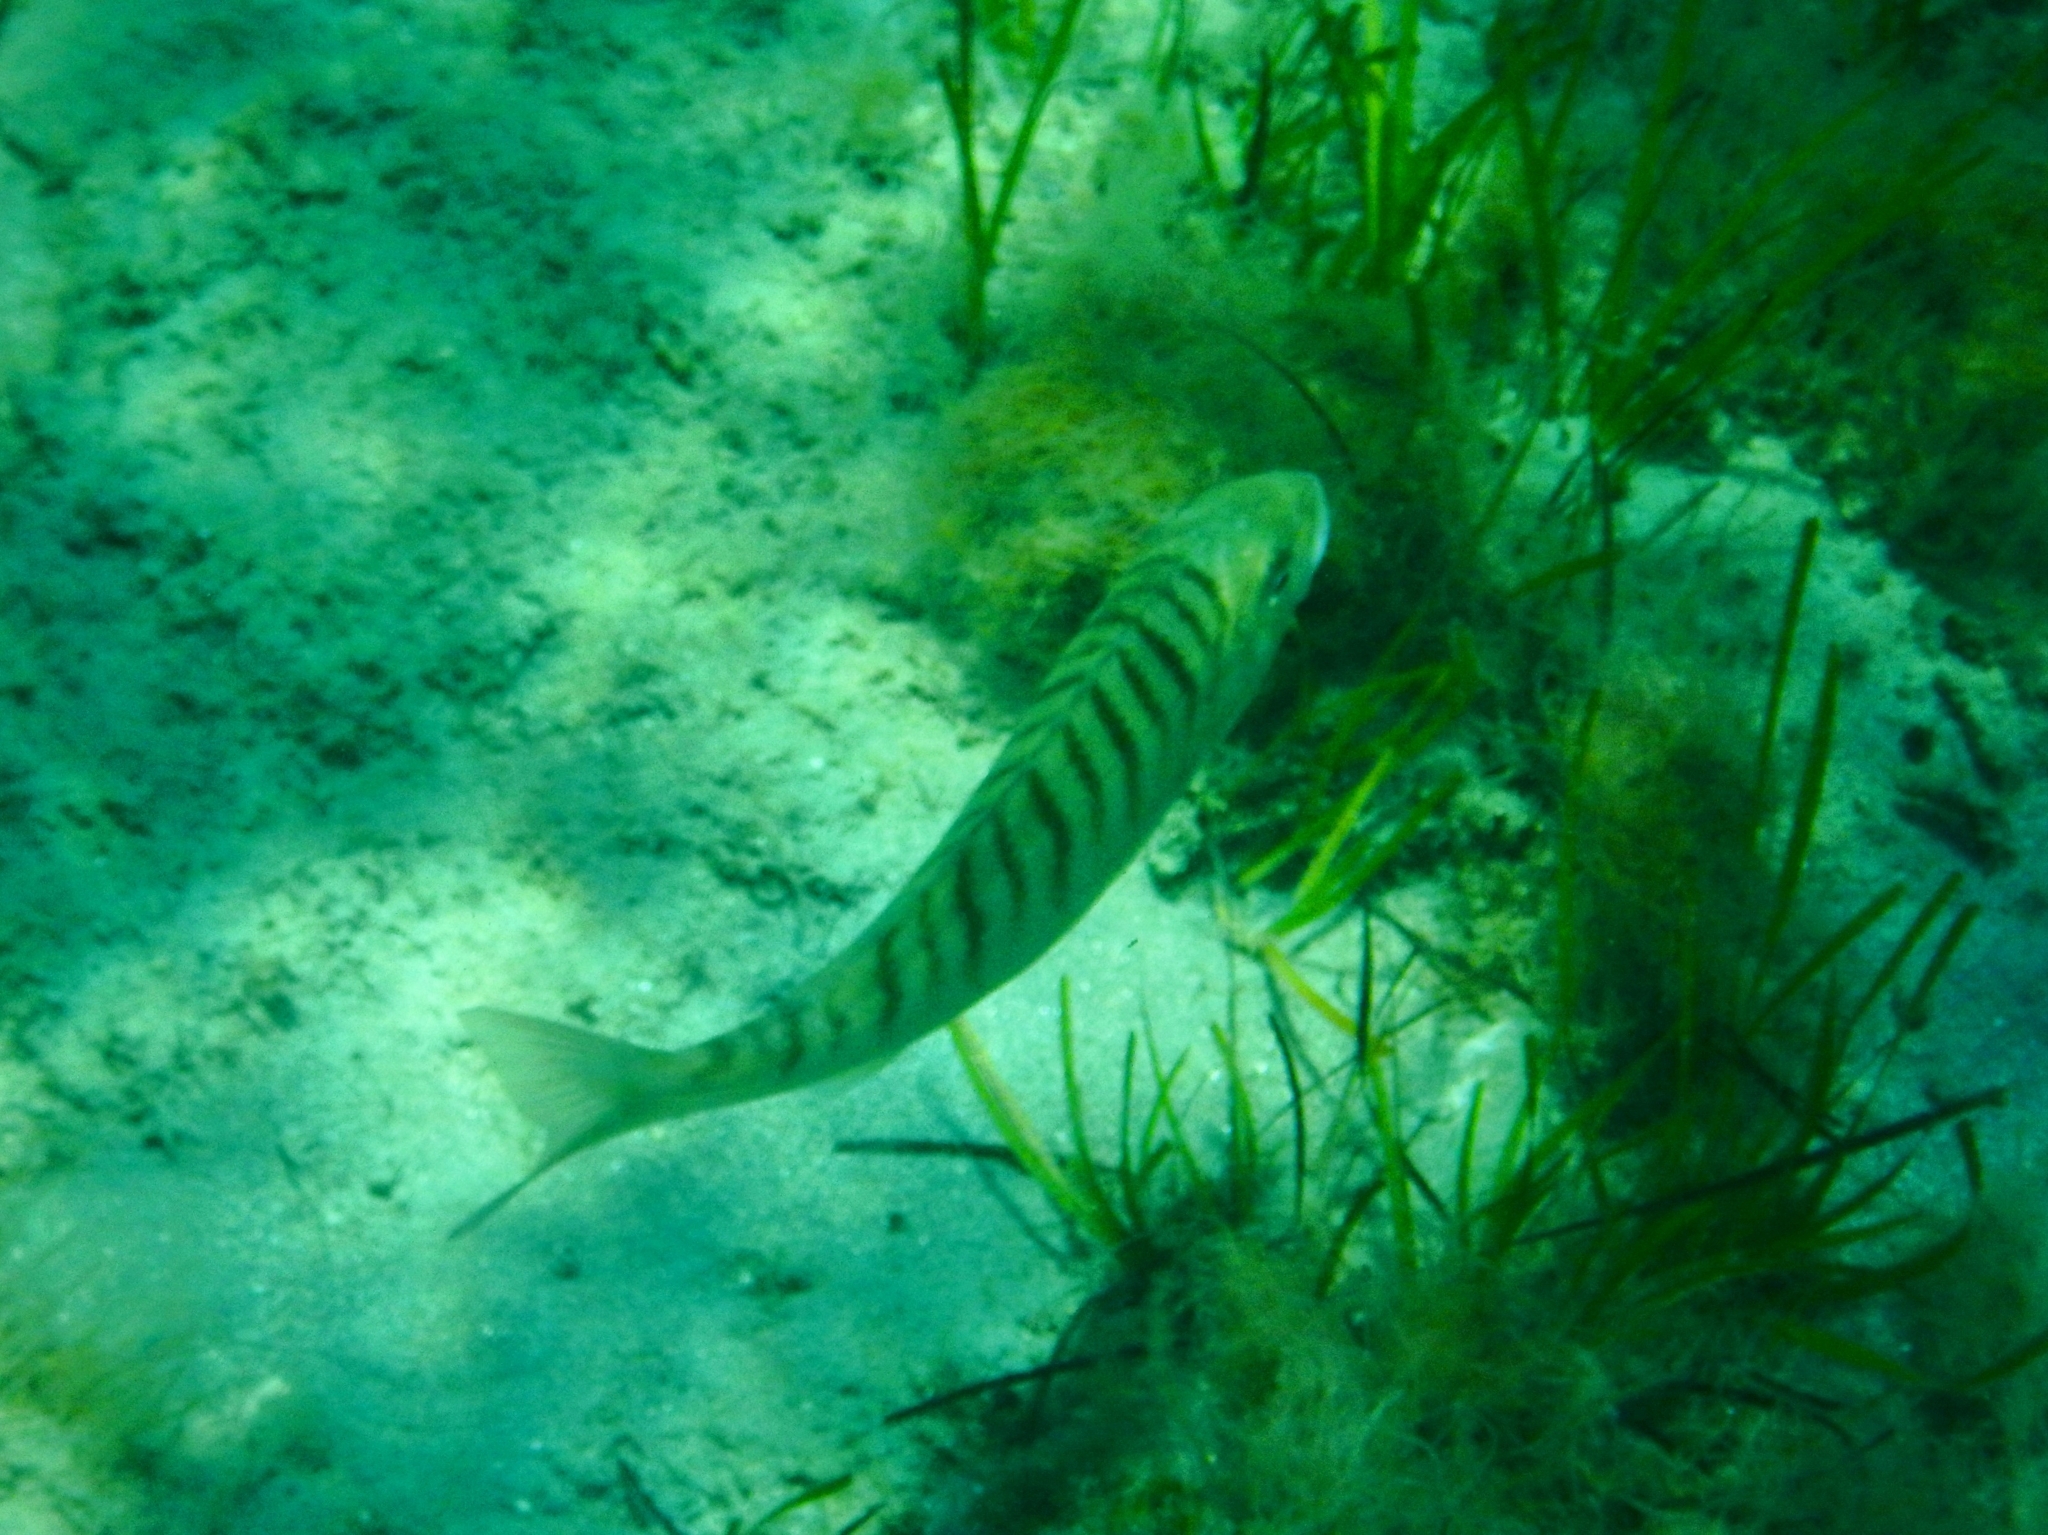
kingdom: Animalia
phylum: Chordata
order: Perciformes
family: Sparidae
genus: Lithognathus
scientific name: Lithognathus mormyrus
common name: Sand steenbras
